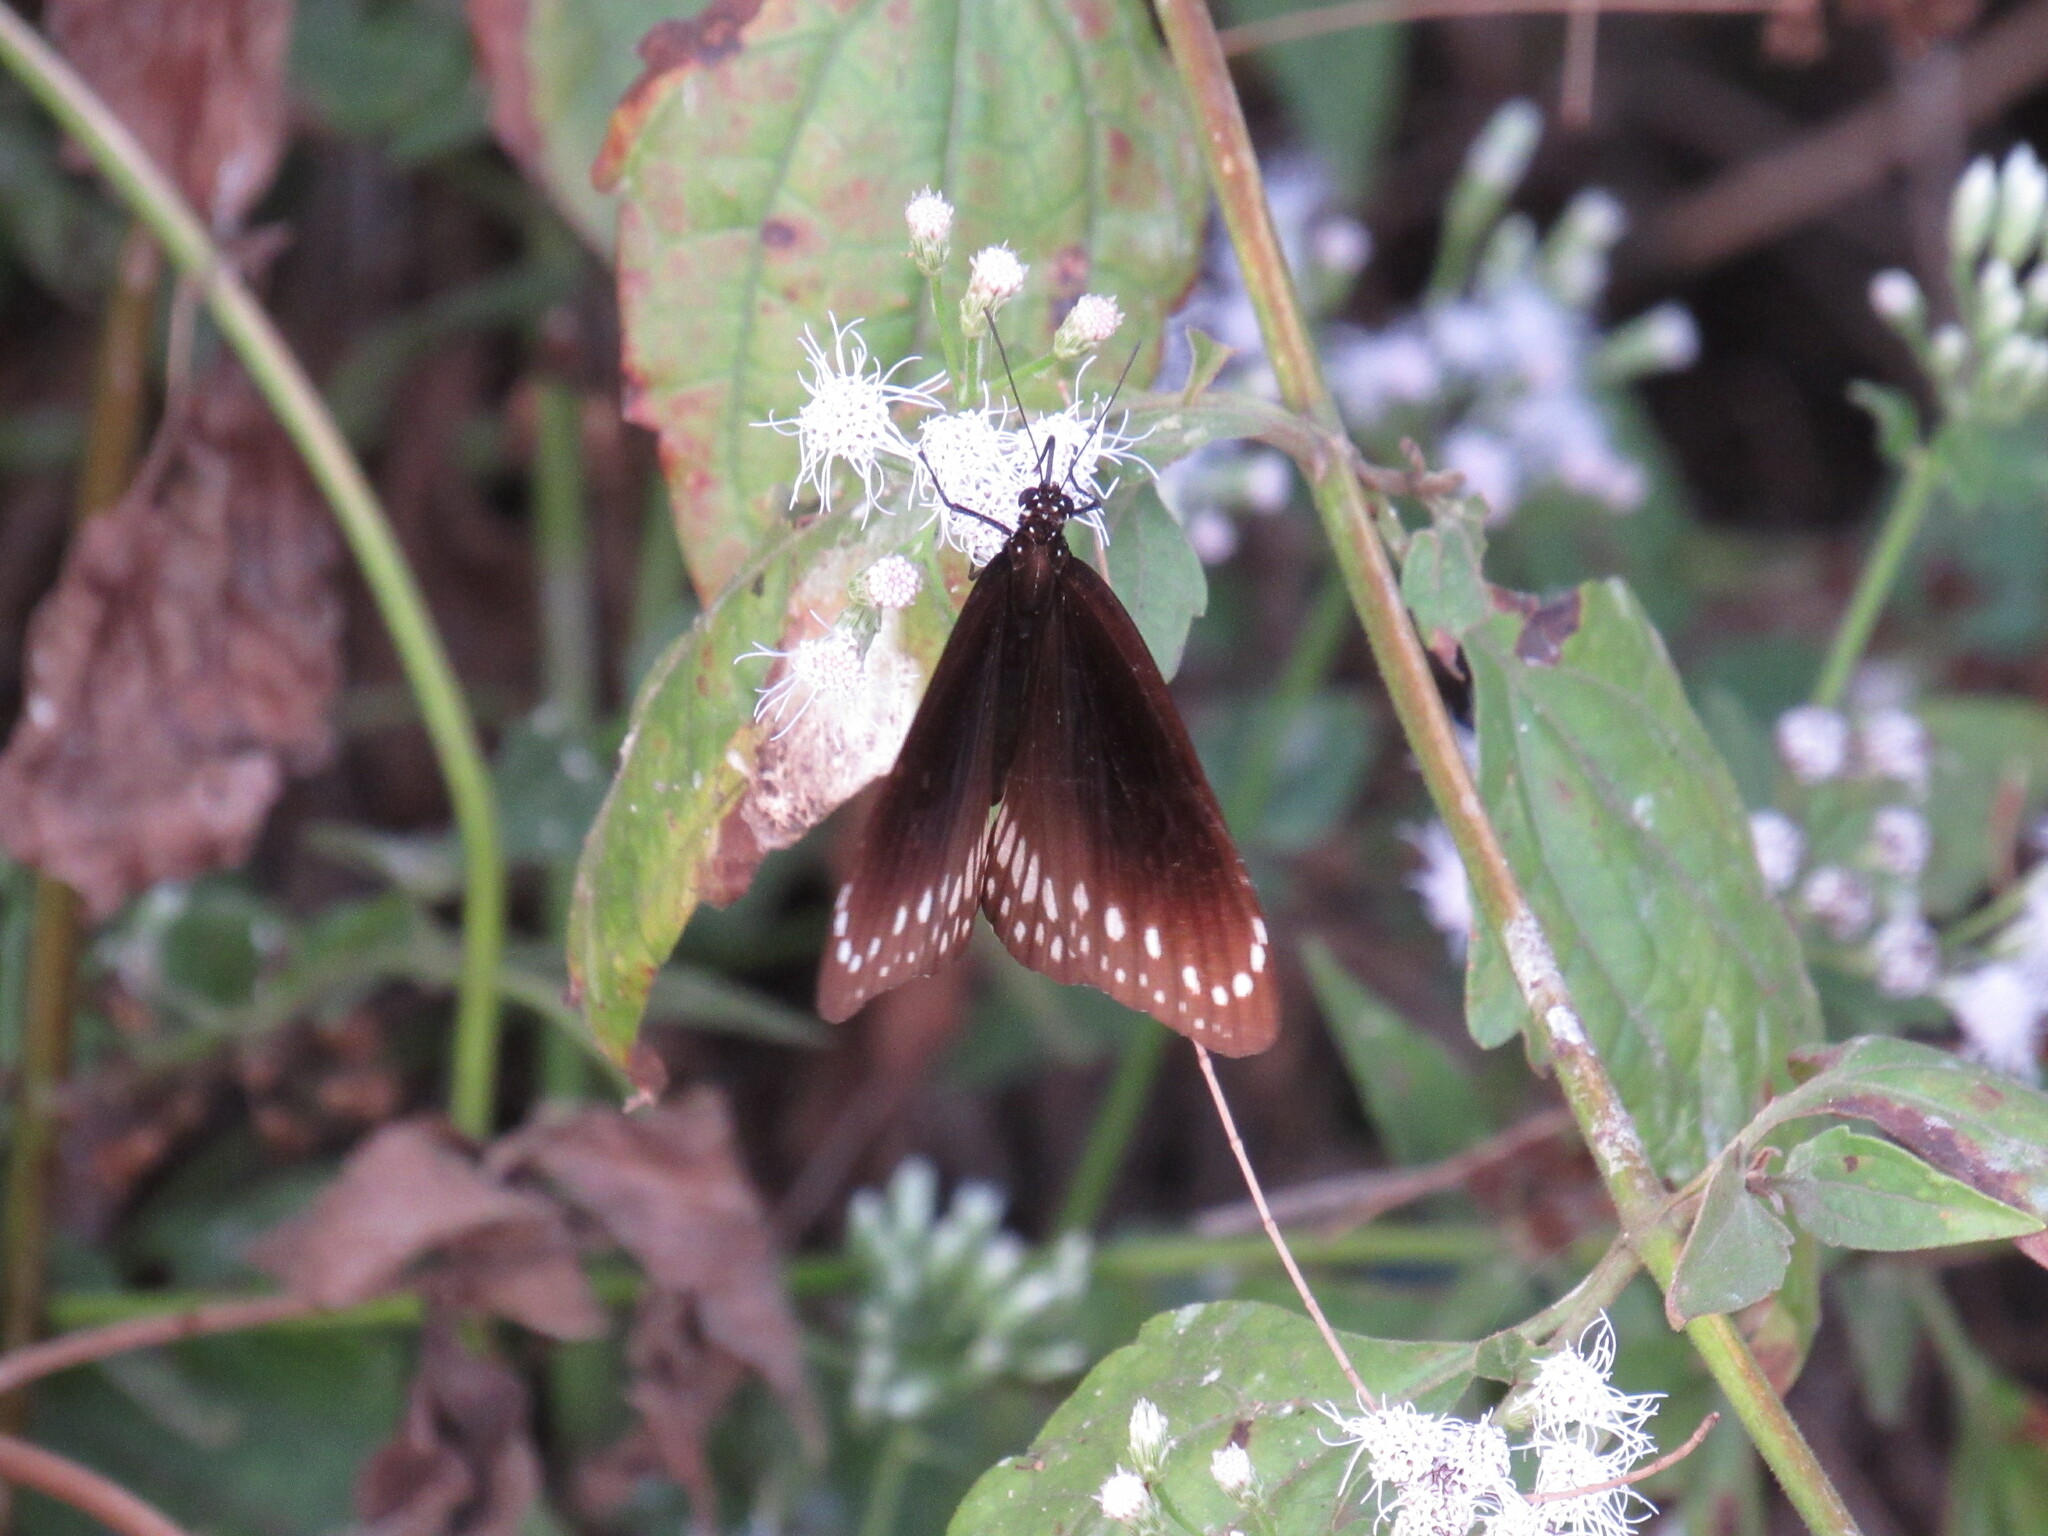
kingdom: Animalia
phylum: Arthropoda
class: Insecta
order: Lepidoptera
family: Nymphalidae
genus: Euploea
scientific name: Euploea core
